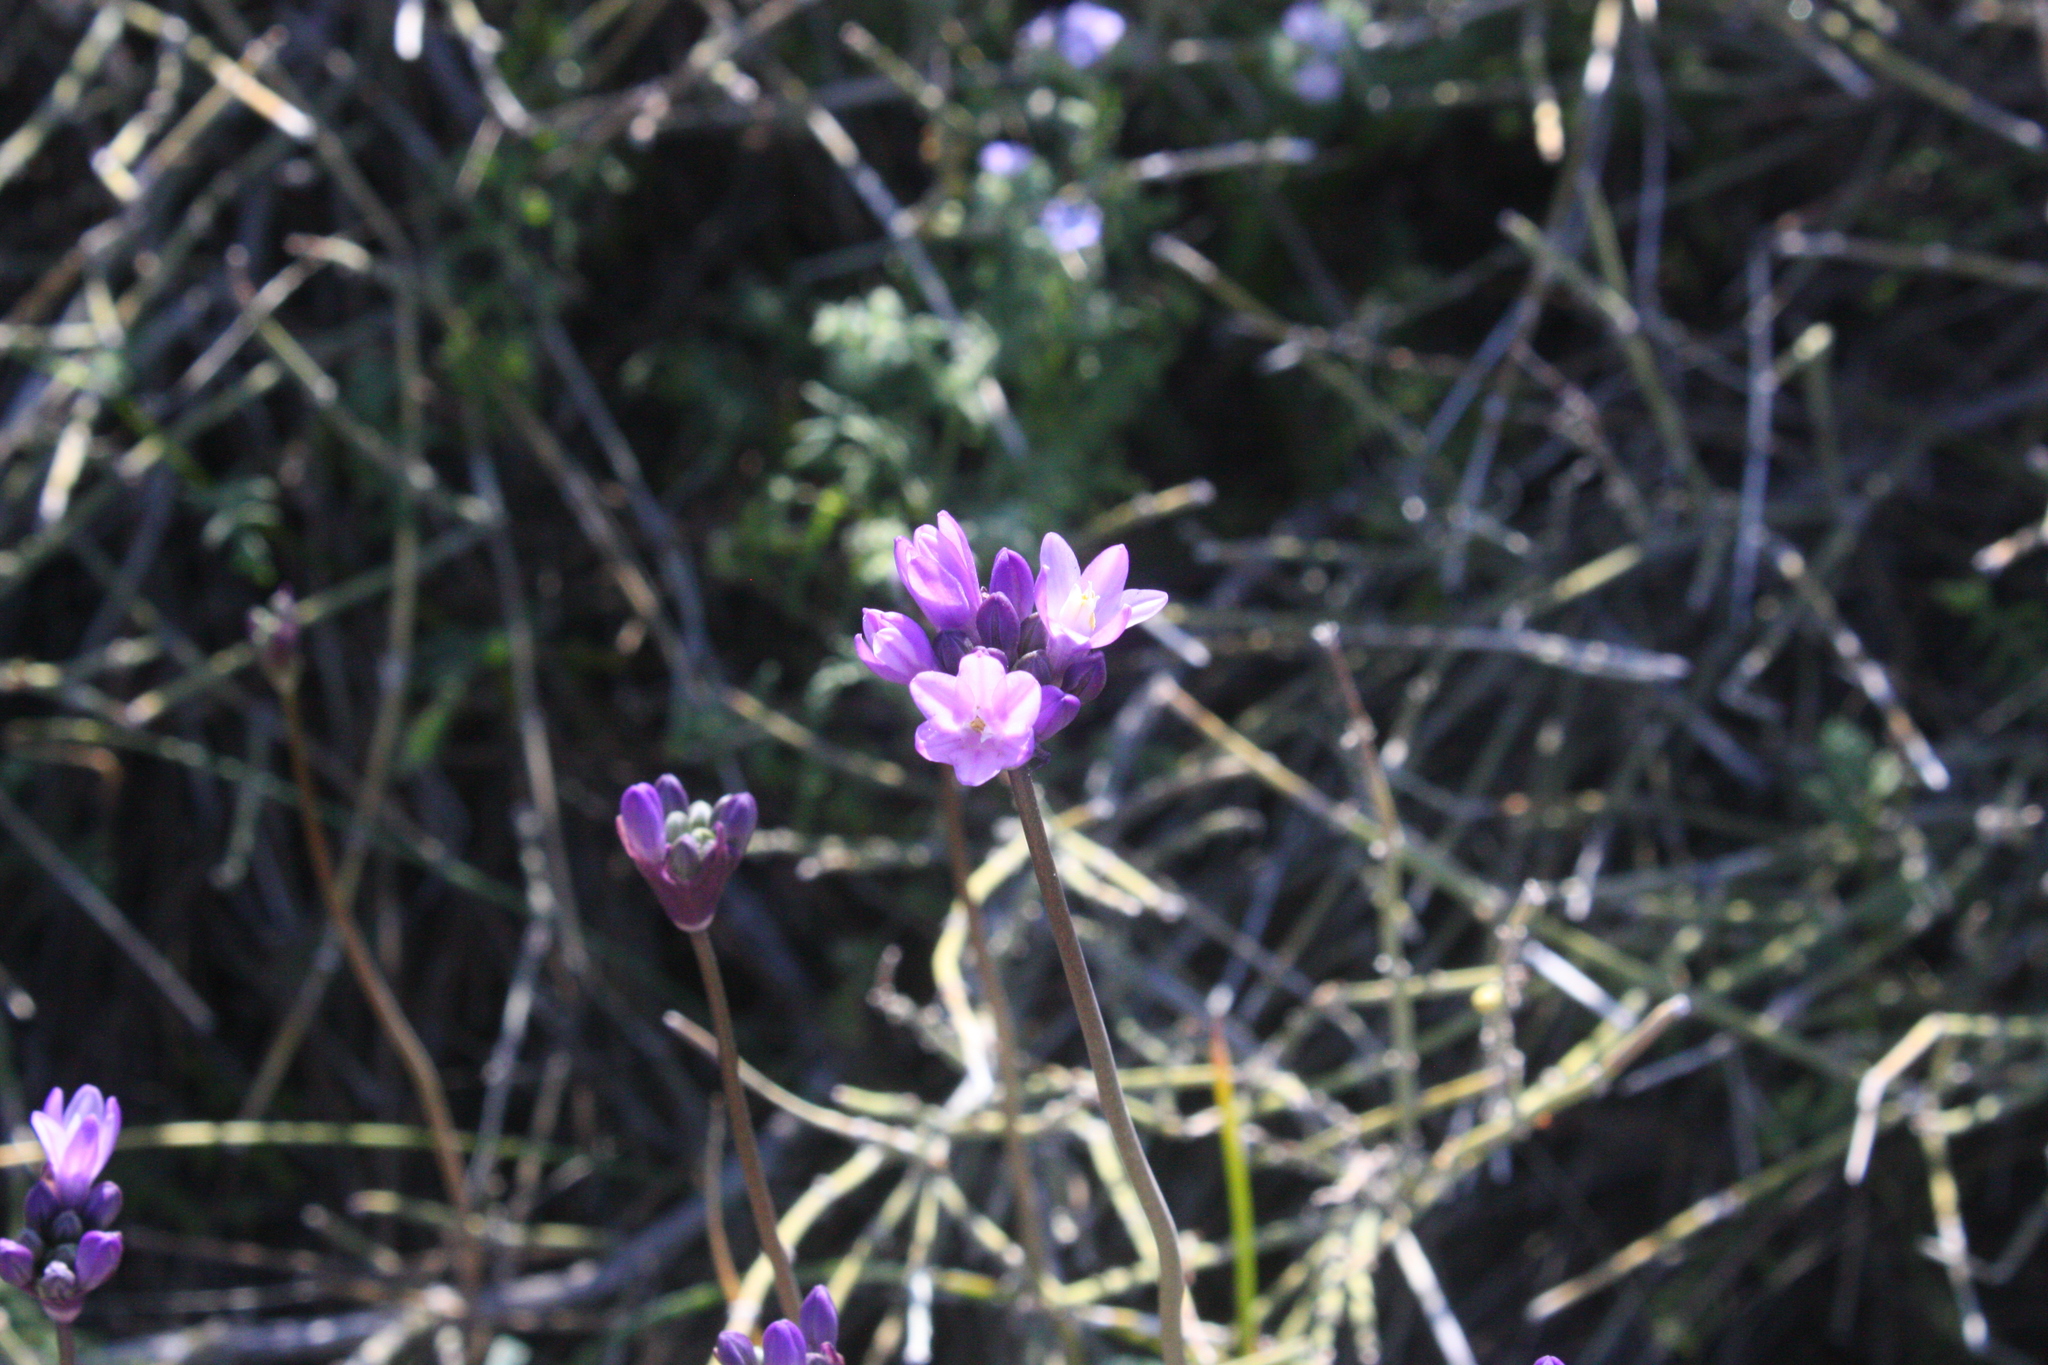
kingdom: Plantae
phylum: Tracheophyta
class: Liliopsida
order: Asparagales
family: Asparagaceae
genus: Dipterostemon
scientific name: Dipterostemon capitatus
